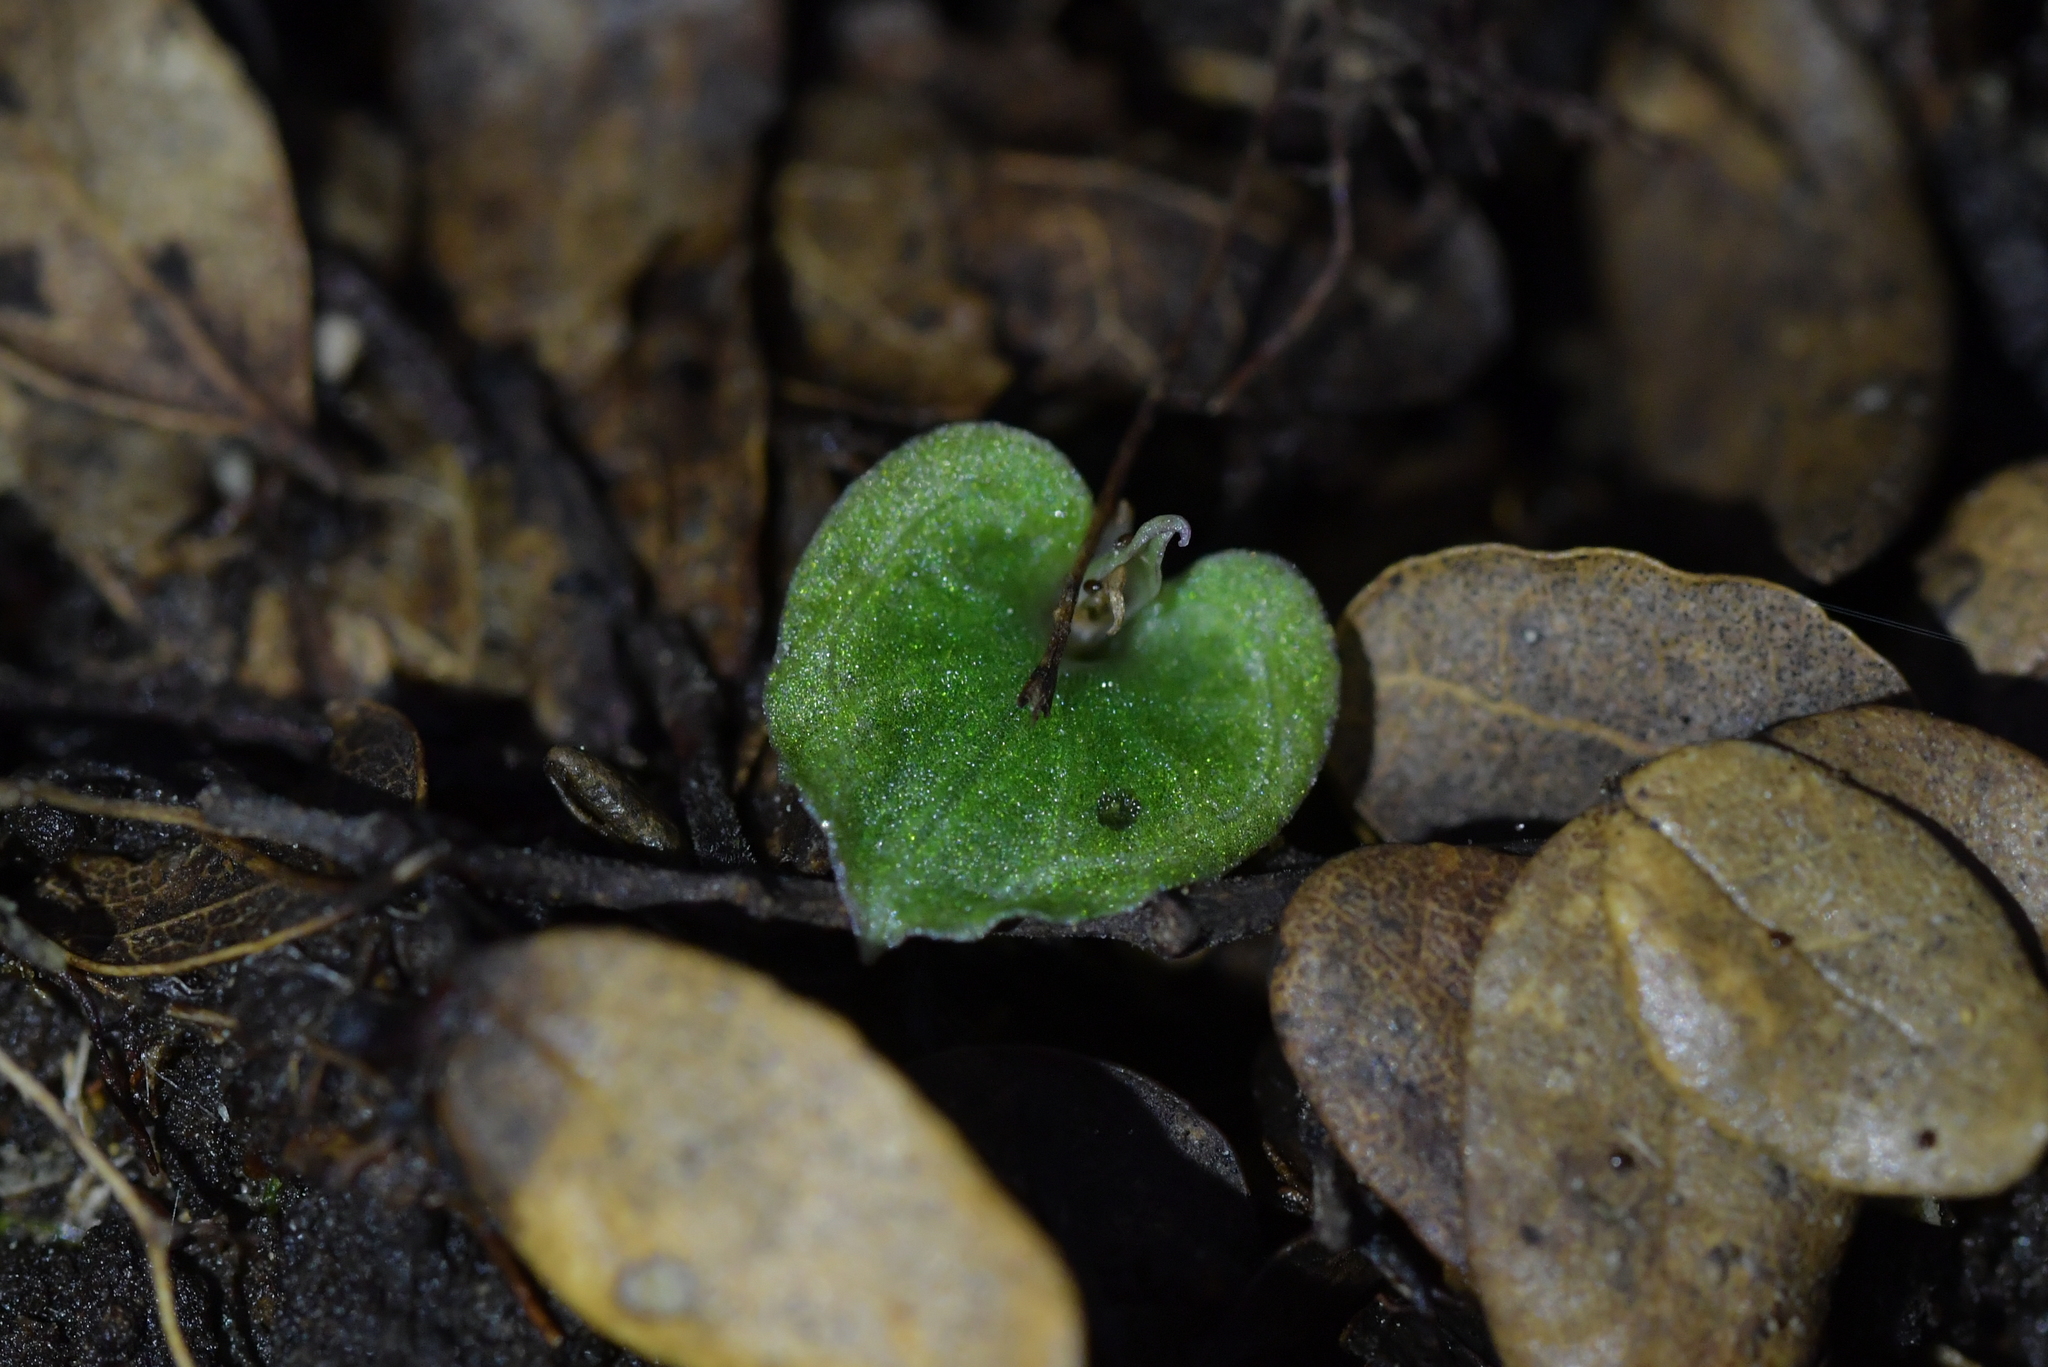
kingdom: Plantae
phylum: Tracheophyta
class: Liliopsida
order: Asparagales
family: Orchidaceae
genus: Corybas
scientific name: Corybas cheesemanii
